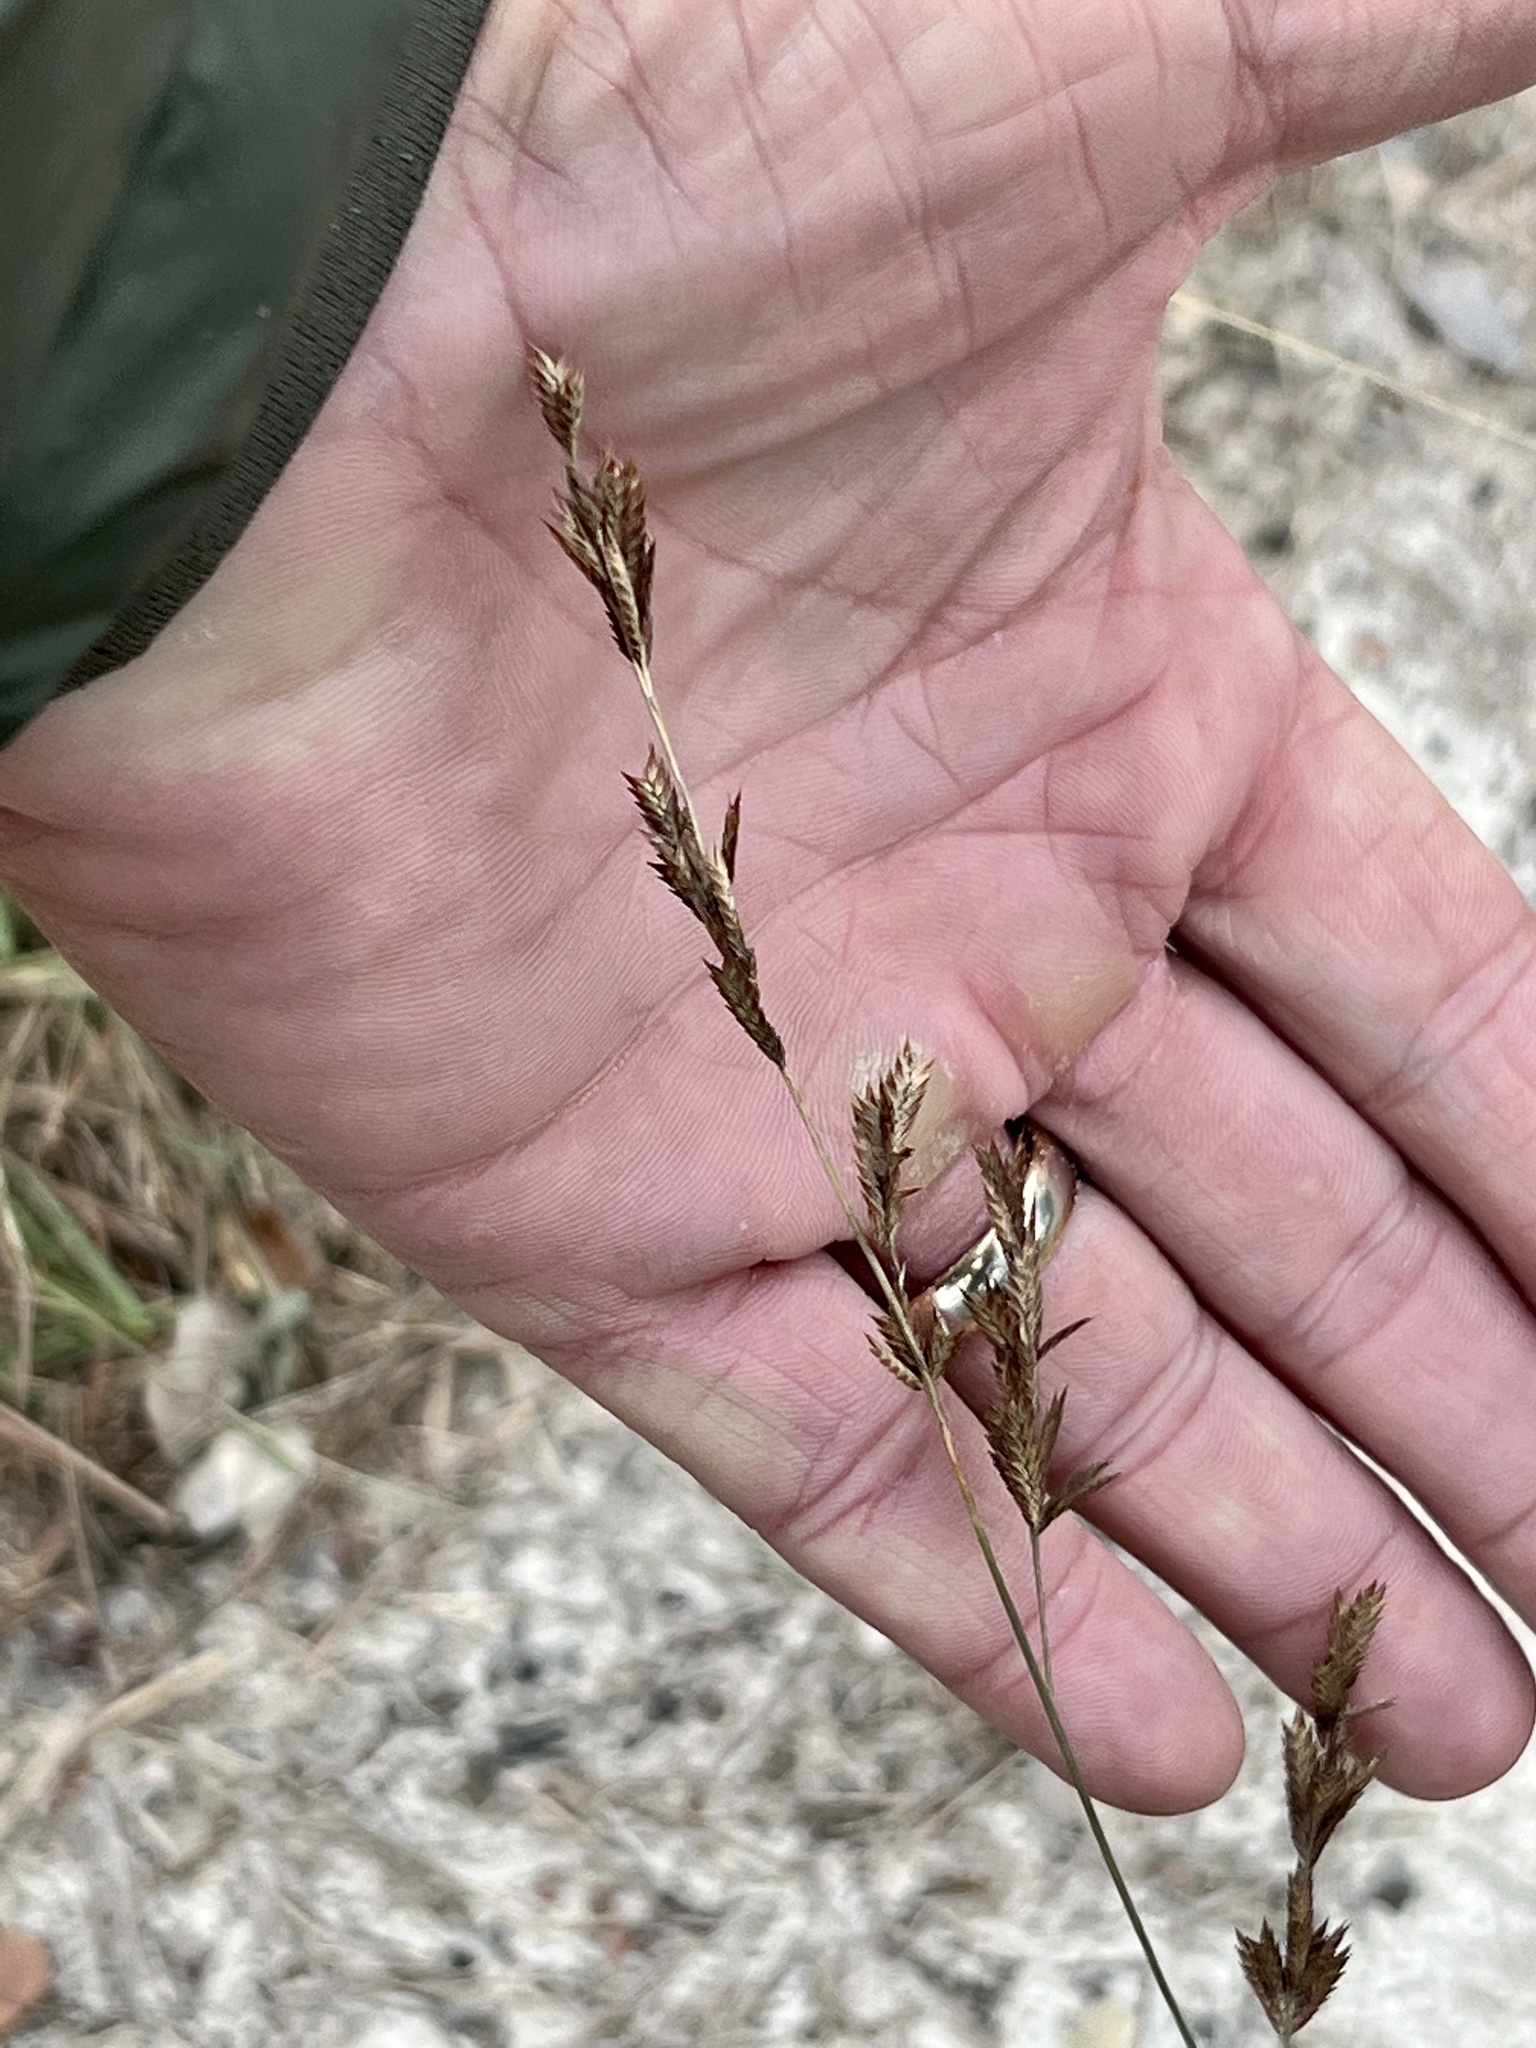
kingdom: Plantae
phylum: Tracheophyta
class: Liliopsida
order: Poales
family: Poaceae
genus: Eragrostis
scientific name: Eragrostis secundiflora
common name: Red love grass
